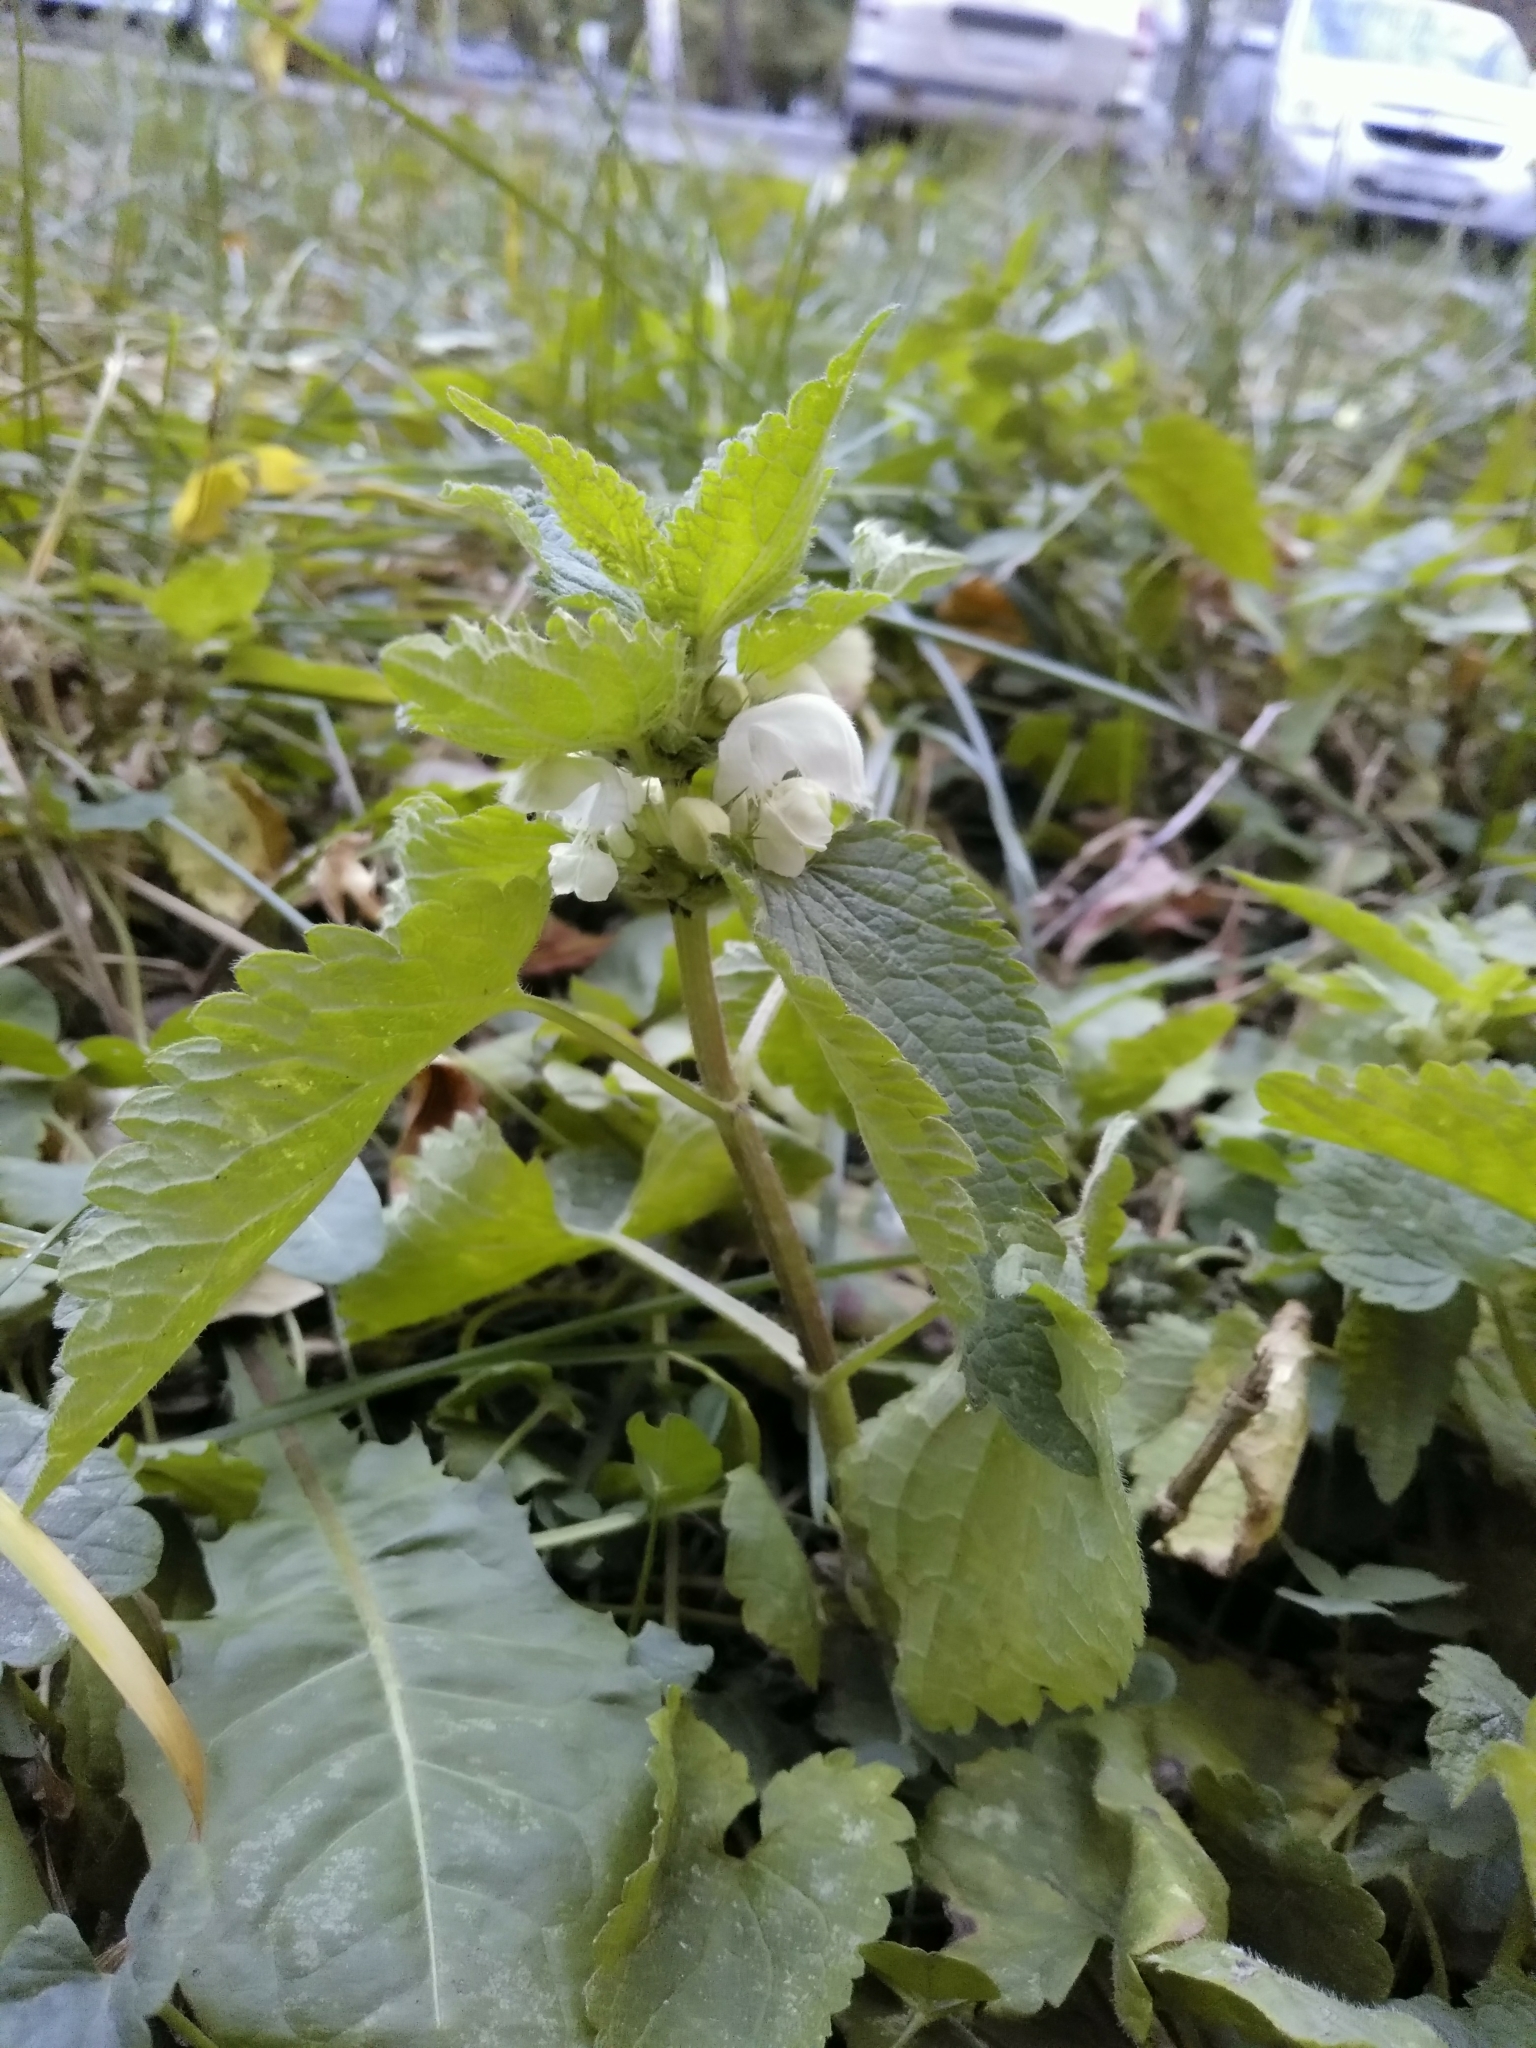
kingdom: Plantae
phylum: Tracheophyta
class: Magnoliopsida
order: Lamiales
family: Lamiaceae
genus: Lamium
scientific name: Lamium album
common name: White dead-nettle
